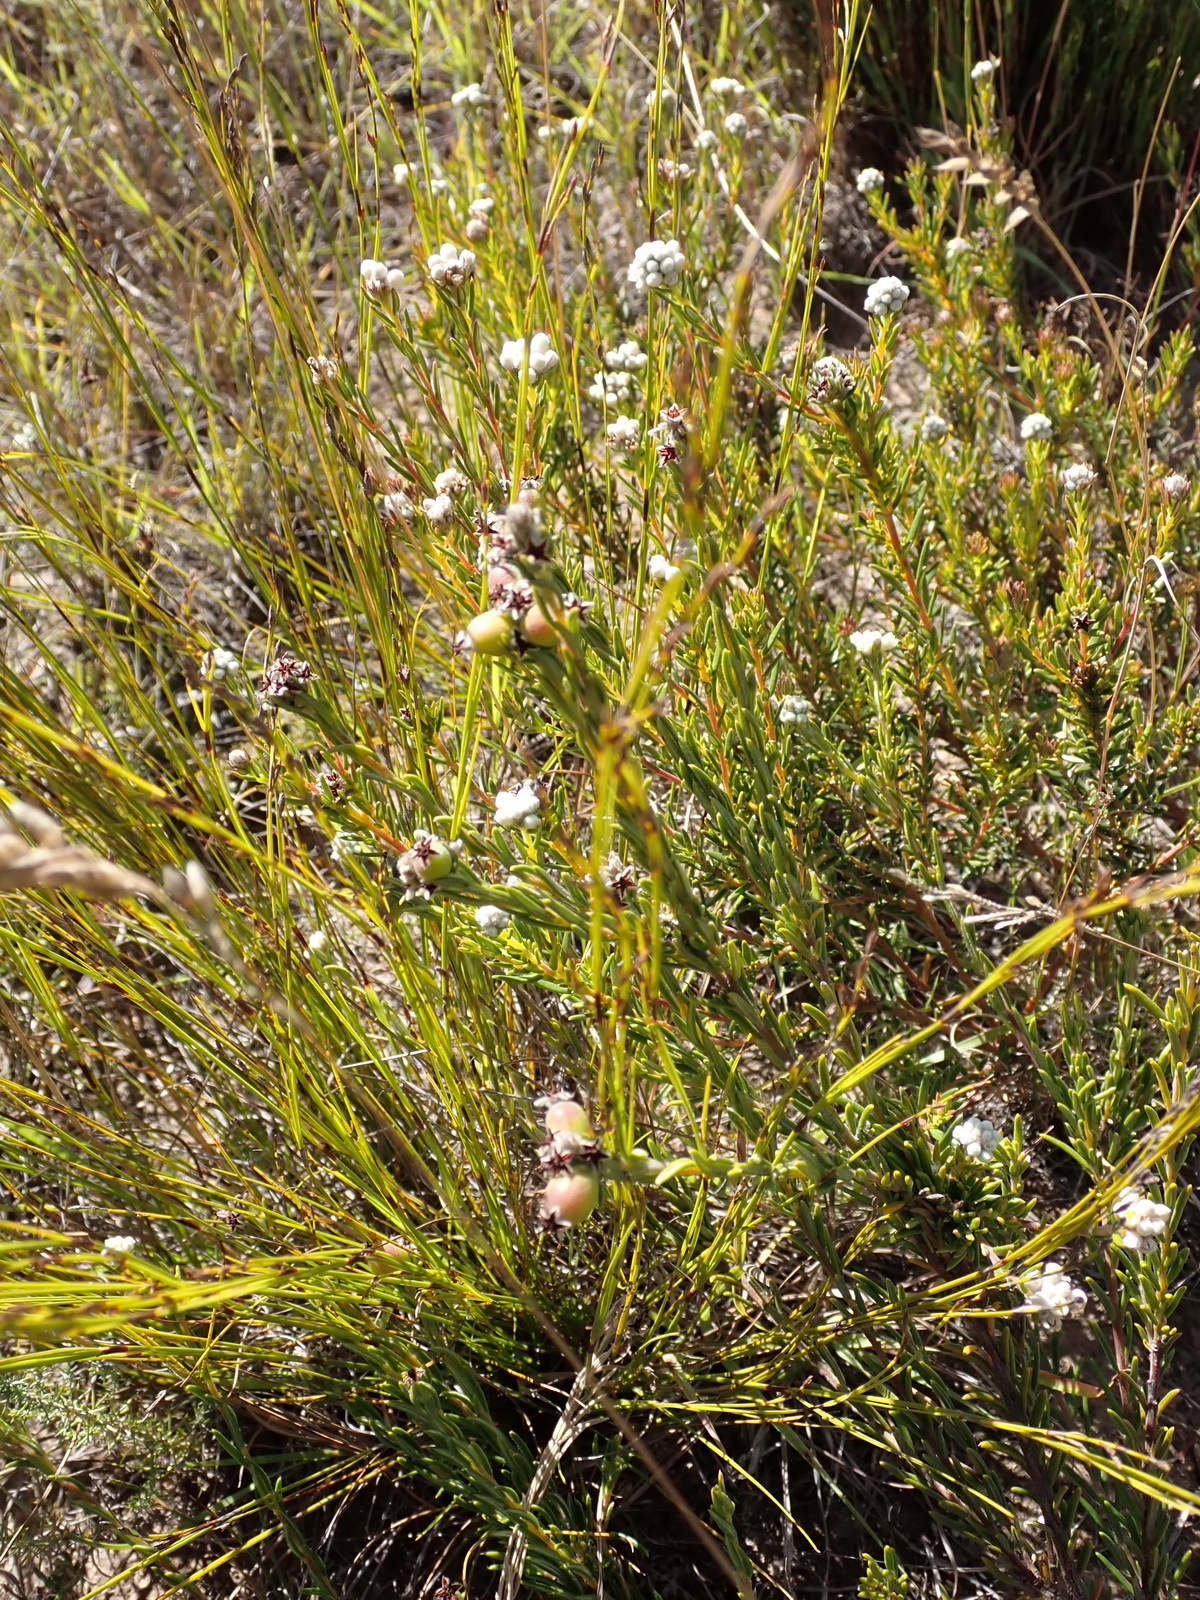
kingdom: Plantae
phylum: Tracheophyta
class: Magnoliopsida
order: Rosales
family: Rhamnaceae
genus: Phylica
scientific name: Phylica imberbis
